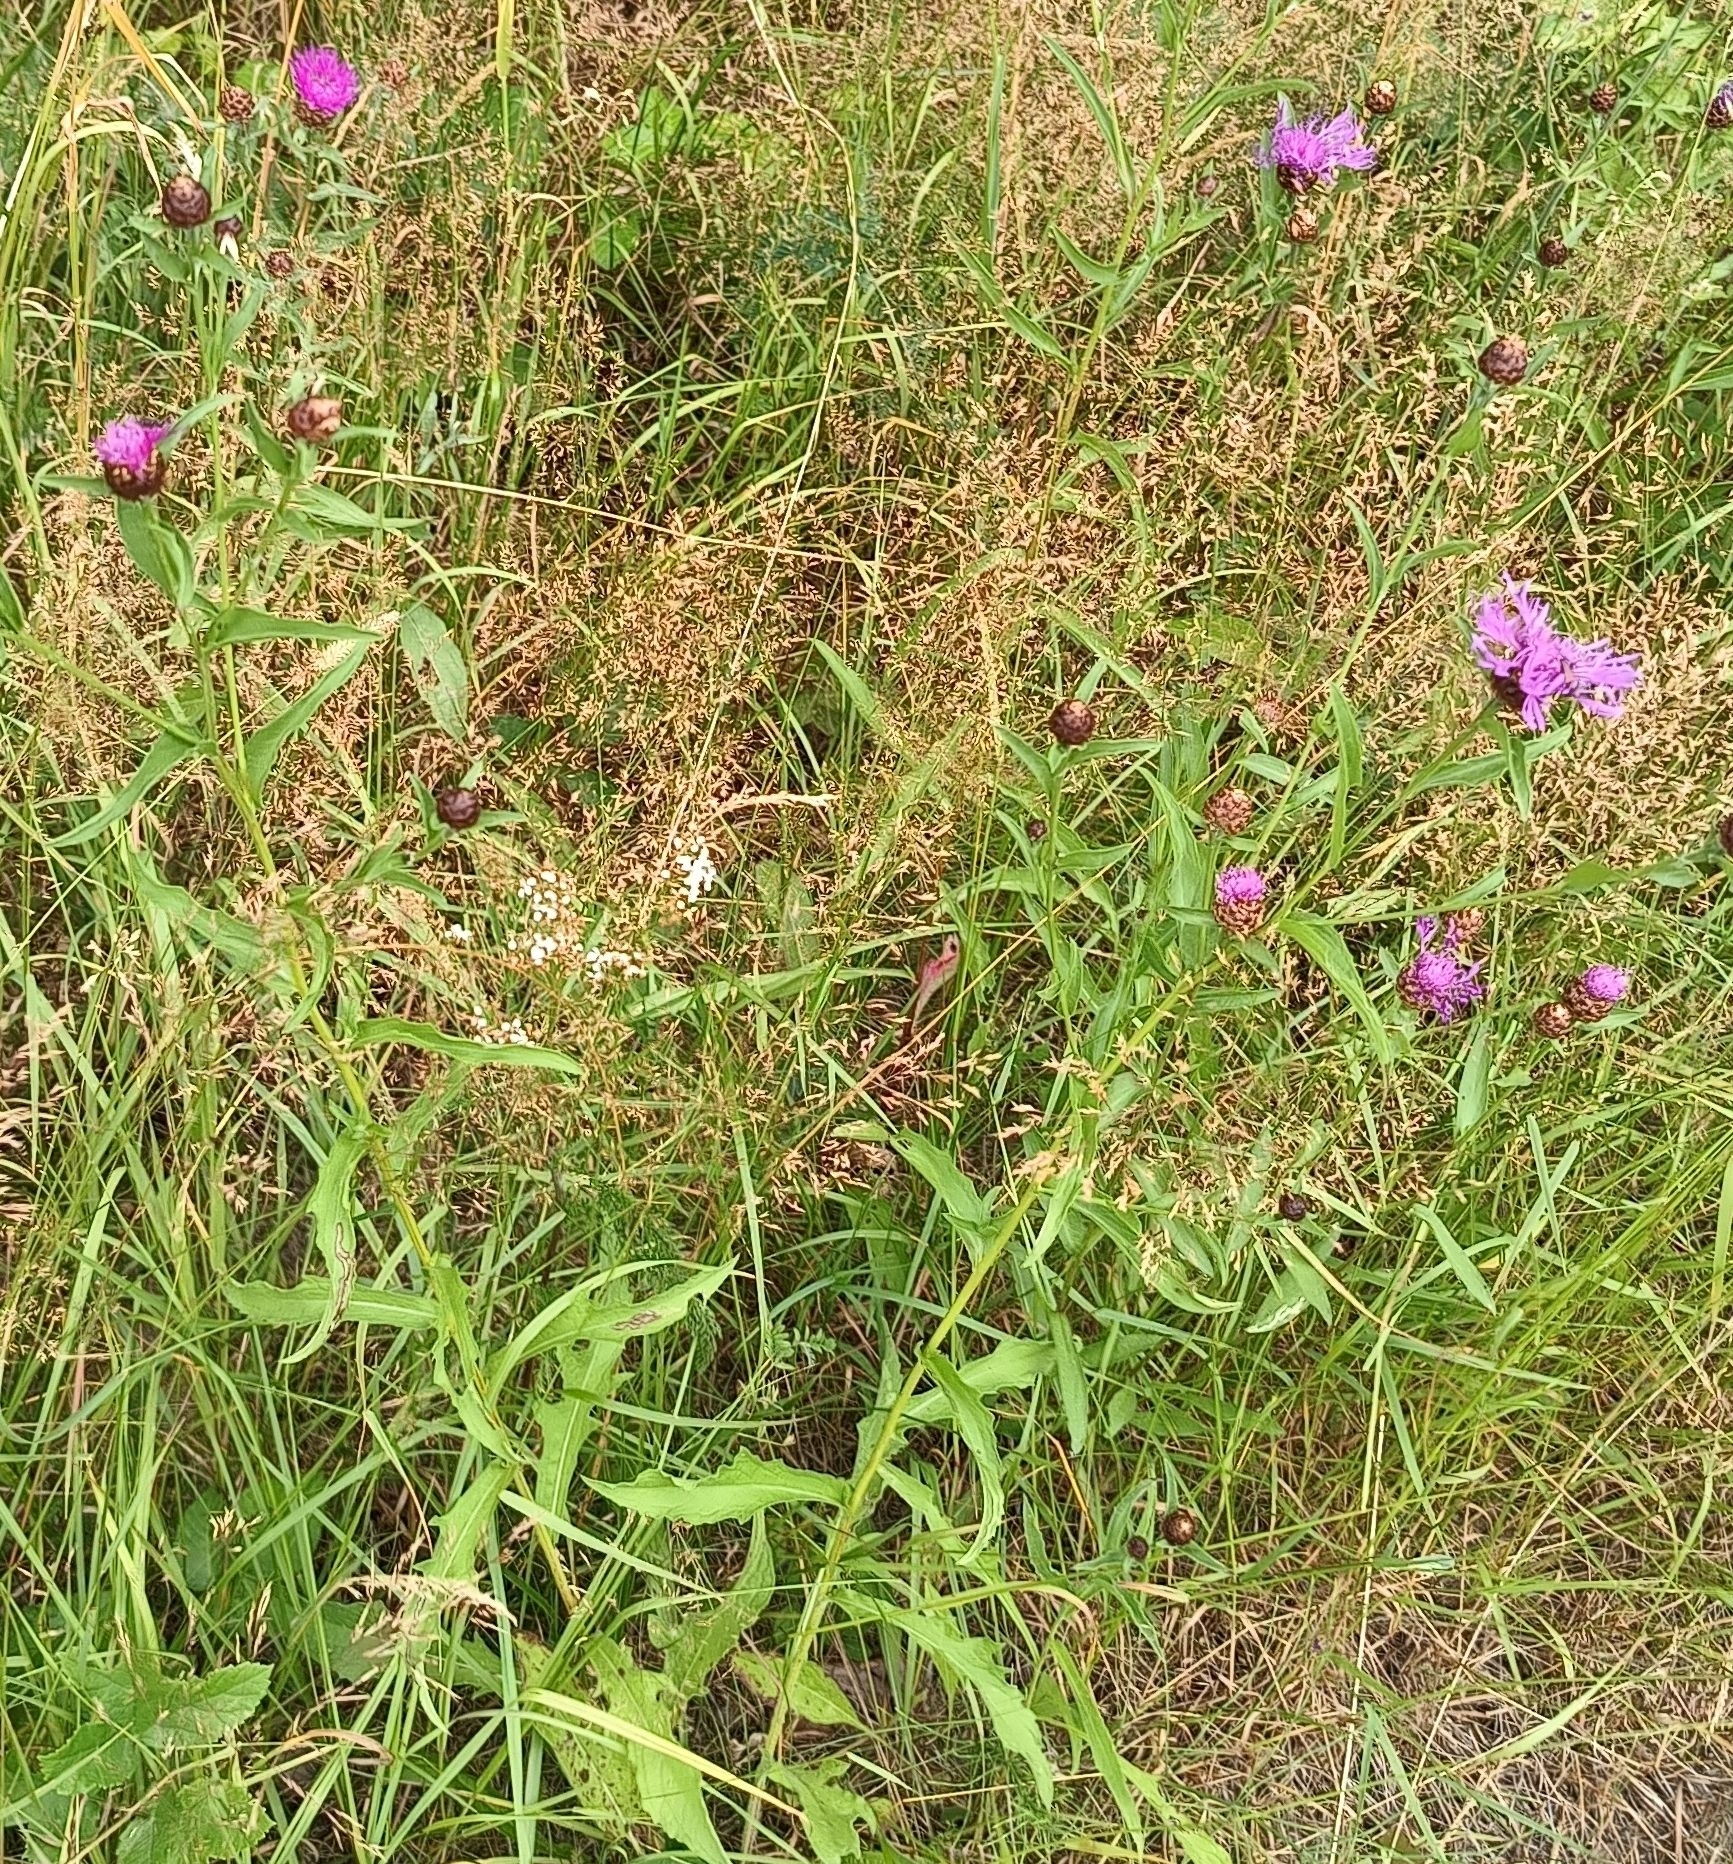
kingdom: Plantae
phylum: Tracheophyta
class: Magnoliopsida
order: Asterales
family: Asteraceae
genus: Centaurea
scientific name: Centaurea jacea
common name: Brown knapweed
